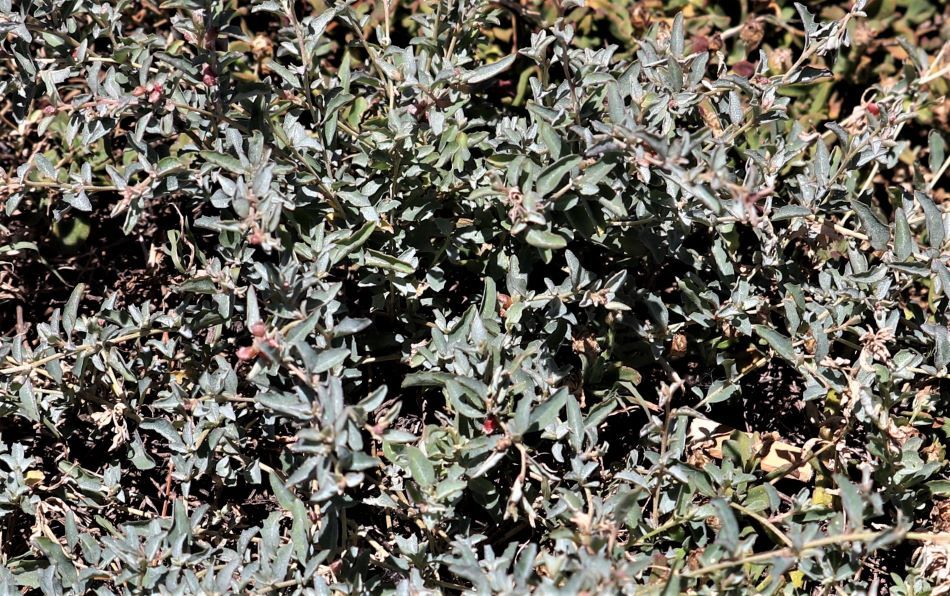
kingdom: Plantae
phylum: Tracheophyta
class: Magnoliopsida
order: Caryophyllales
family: Amaranthaceae
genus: Atriplex
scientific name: Atriplex semibaccata
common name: Australian saltbush
